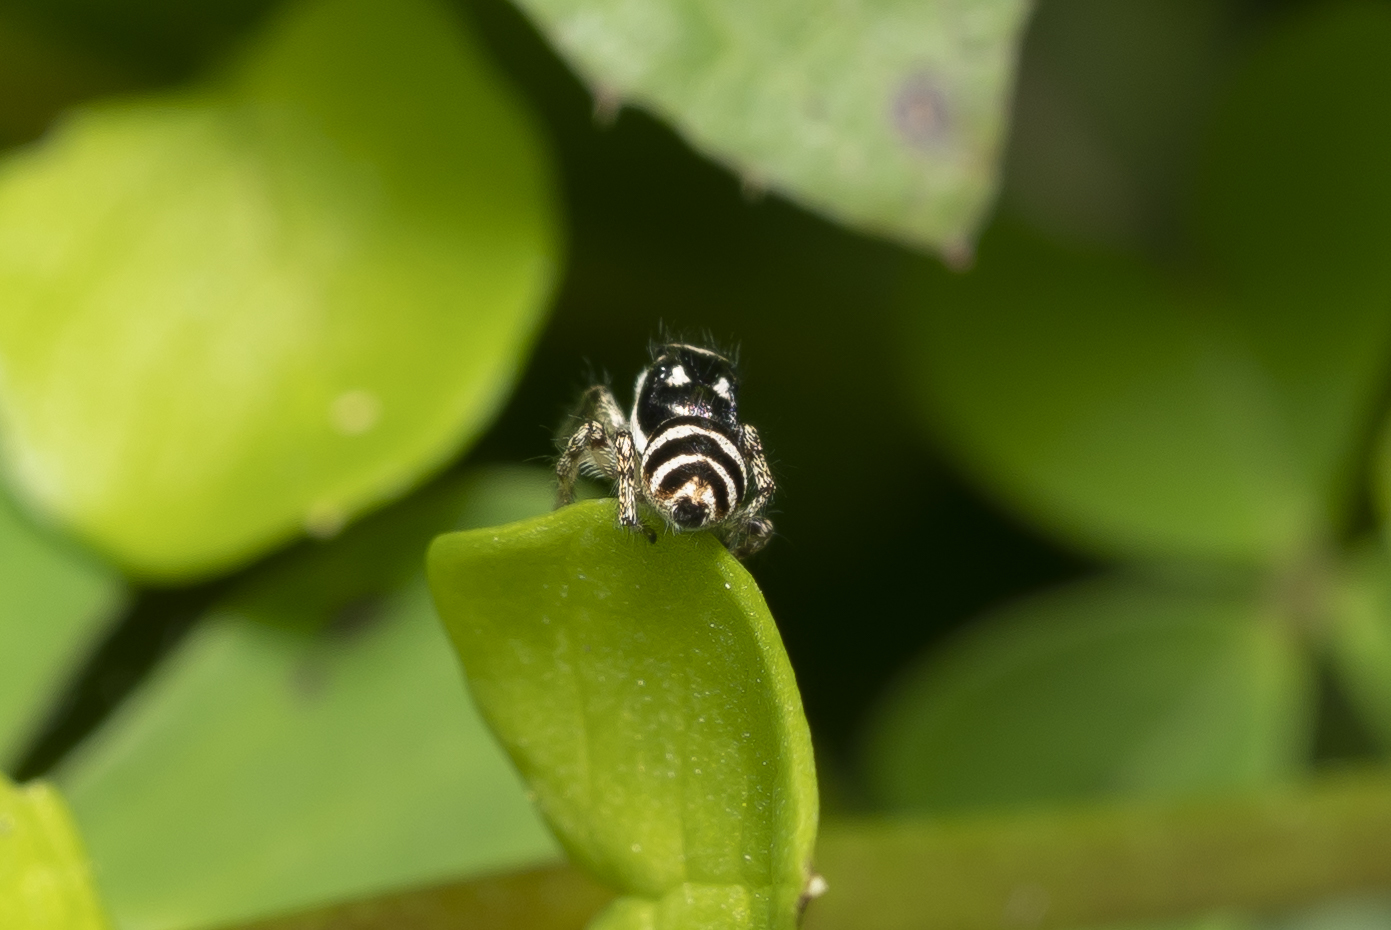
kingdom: Animalia
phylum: Arthropoda
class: Arachnida
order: Araneae
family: Salticidae
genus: Salticus
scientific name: Salticus propinquus
